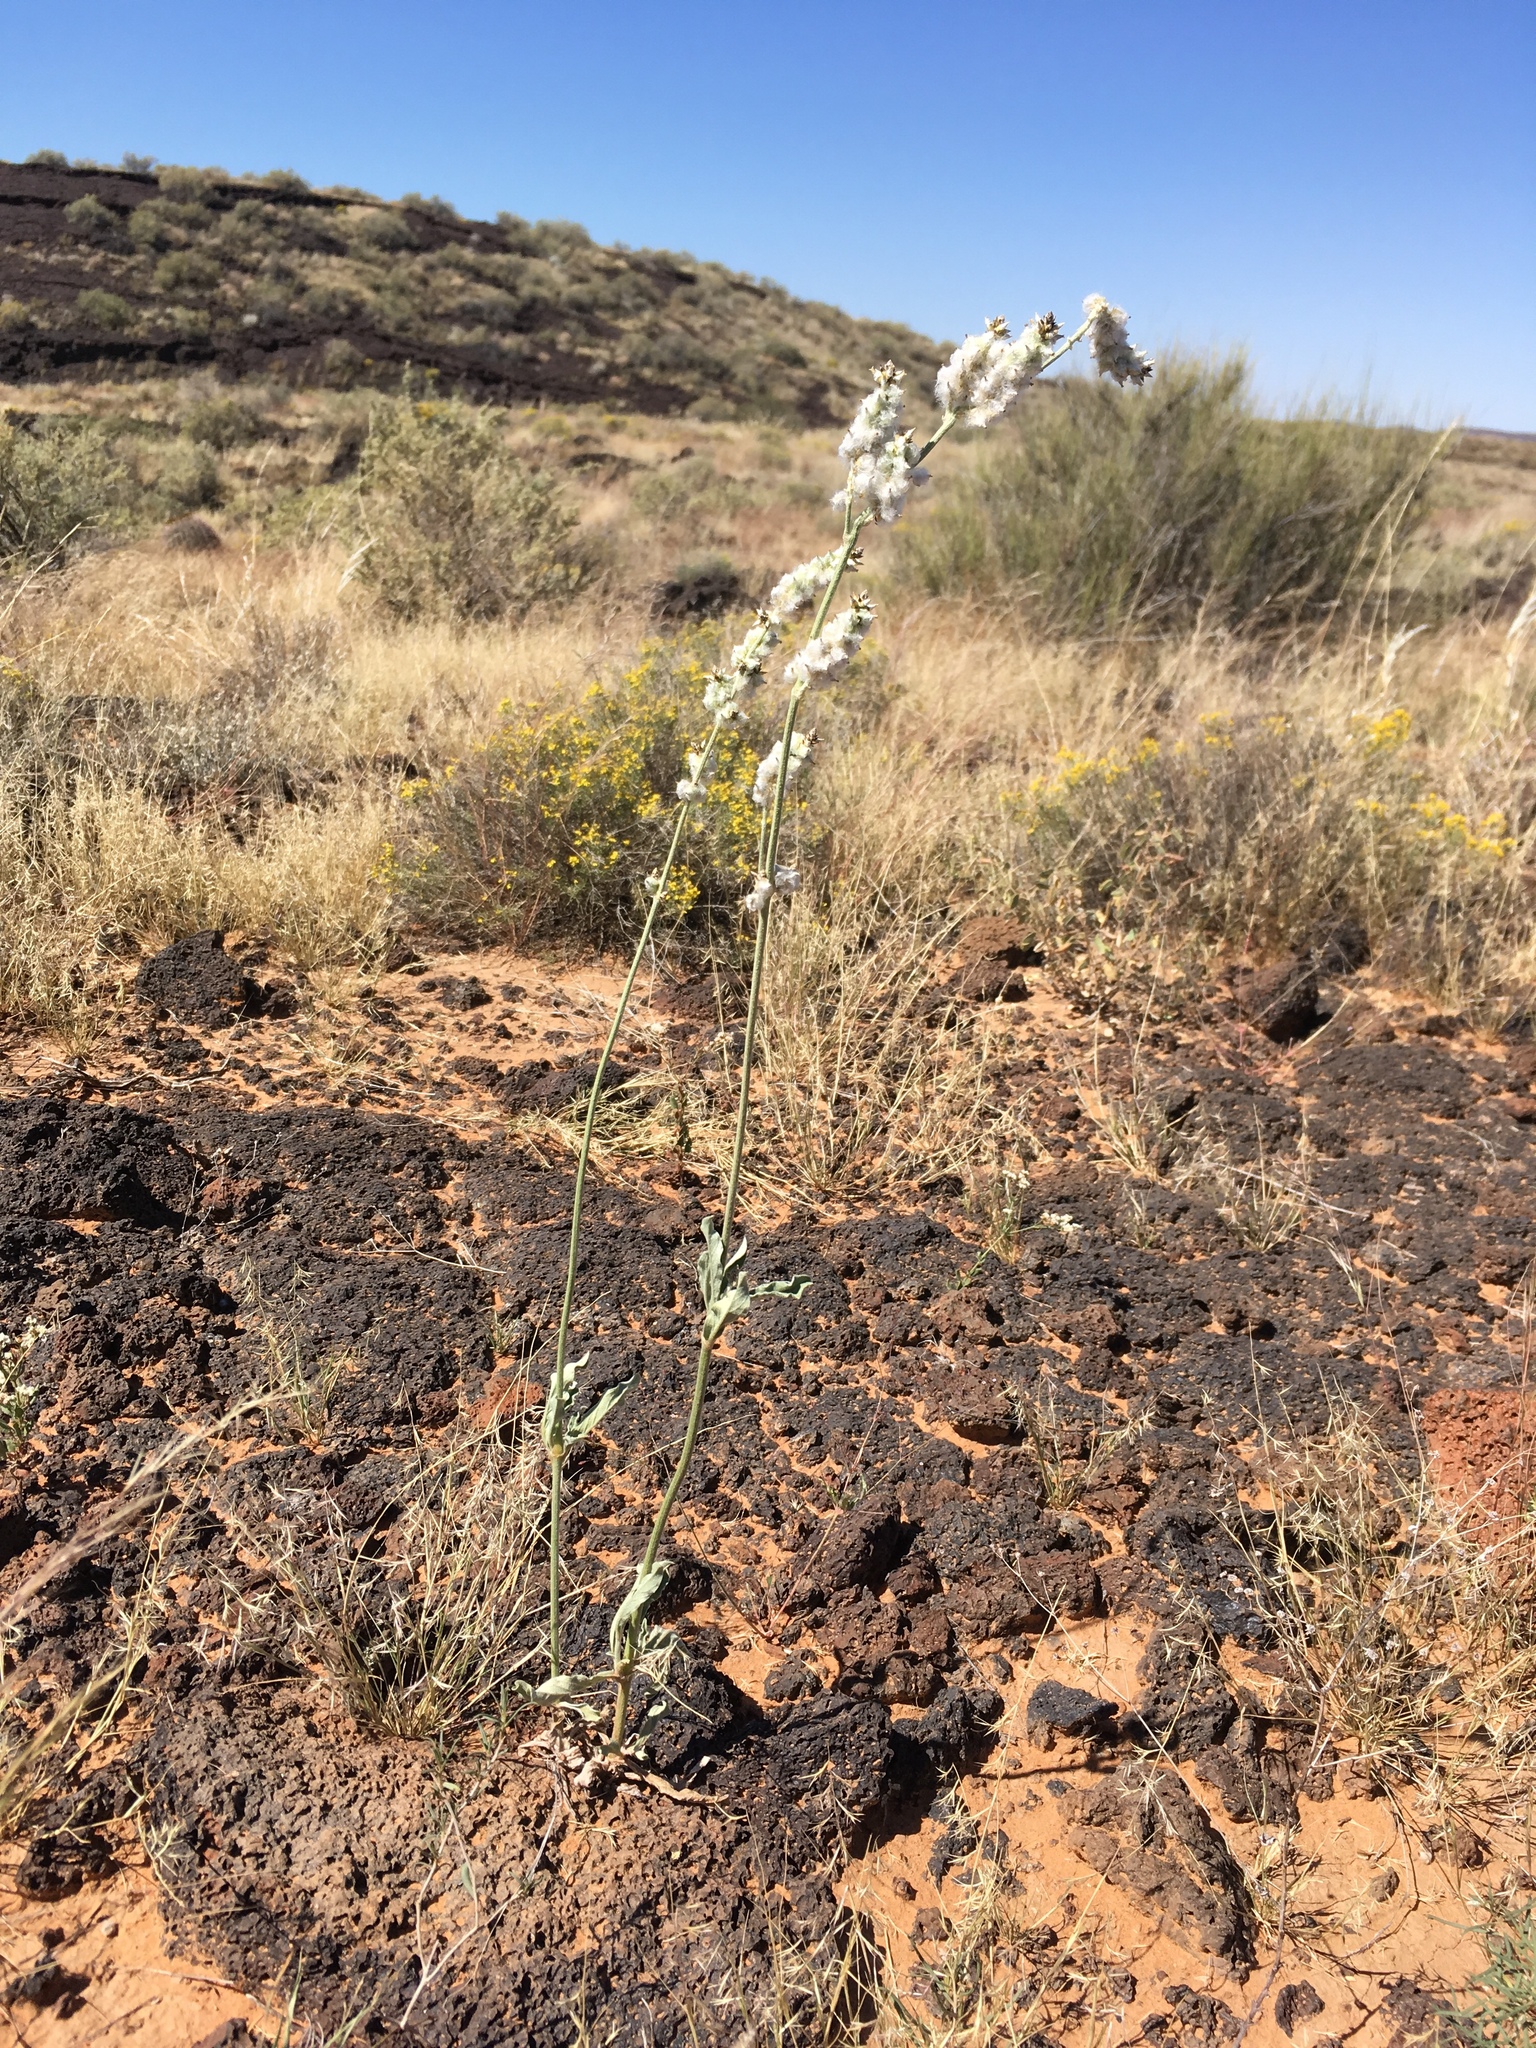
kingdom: Plantae
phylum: Tracheophyta
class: Magnoliopsida
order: Caryophyllales
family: Amaranthaceae
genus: Froelichia
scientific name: Froelichia arizonica
